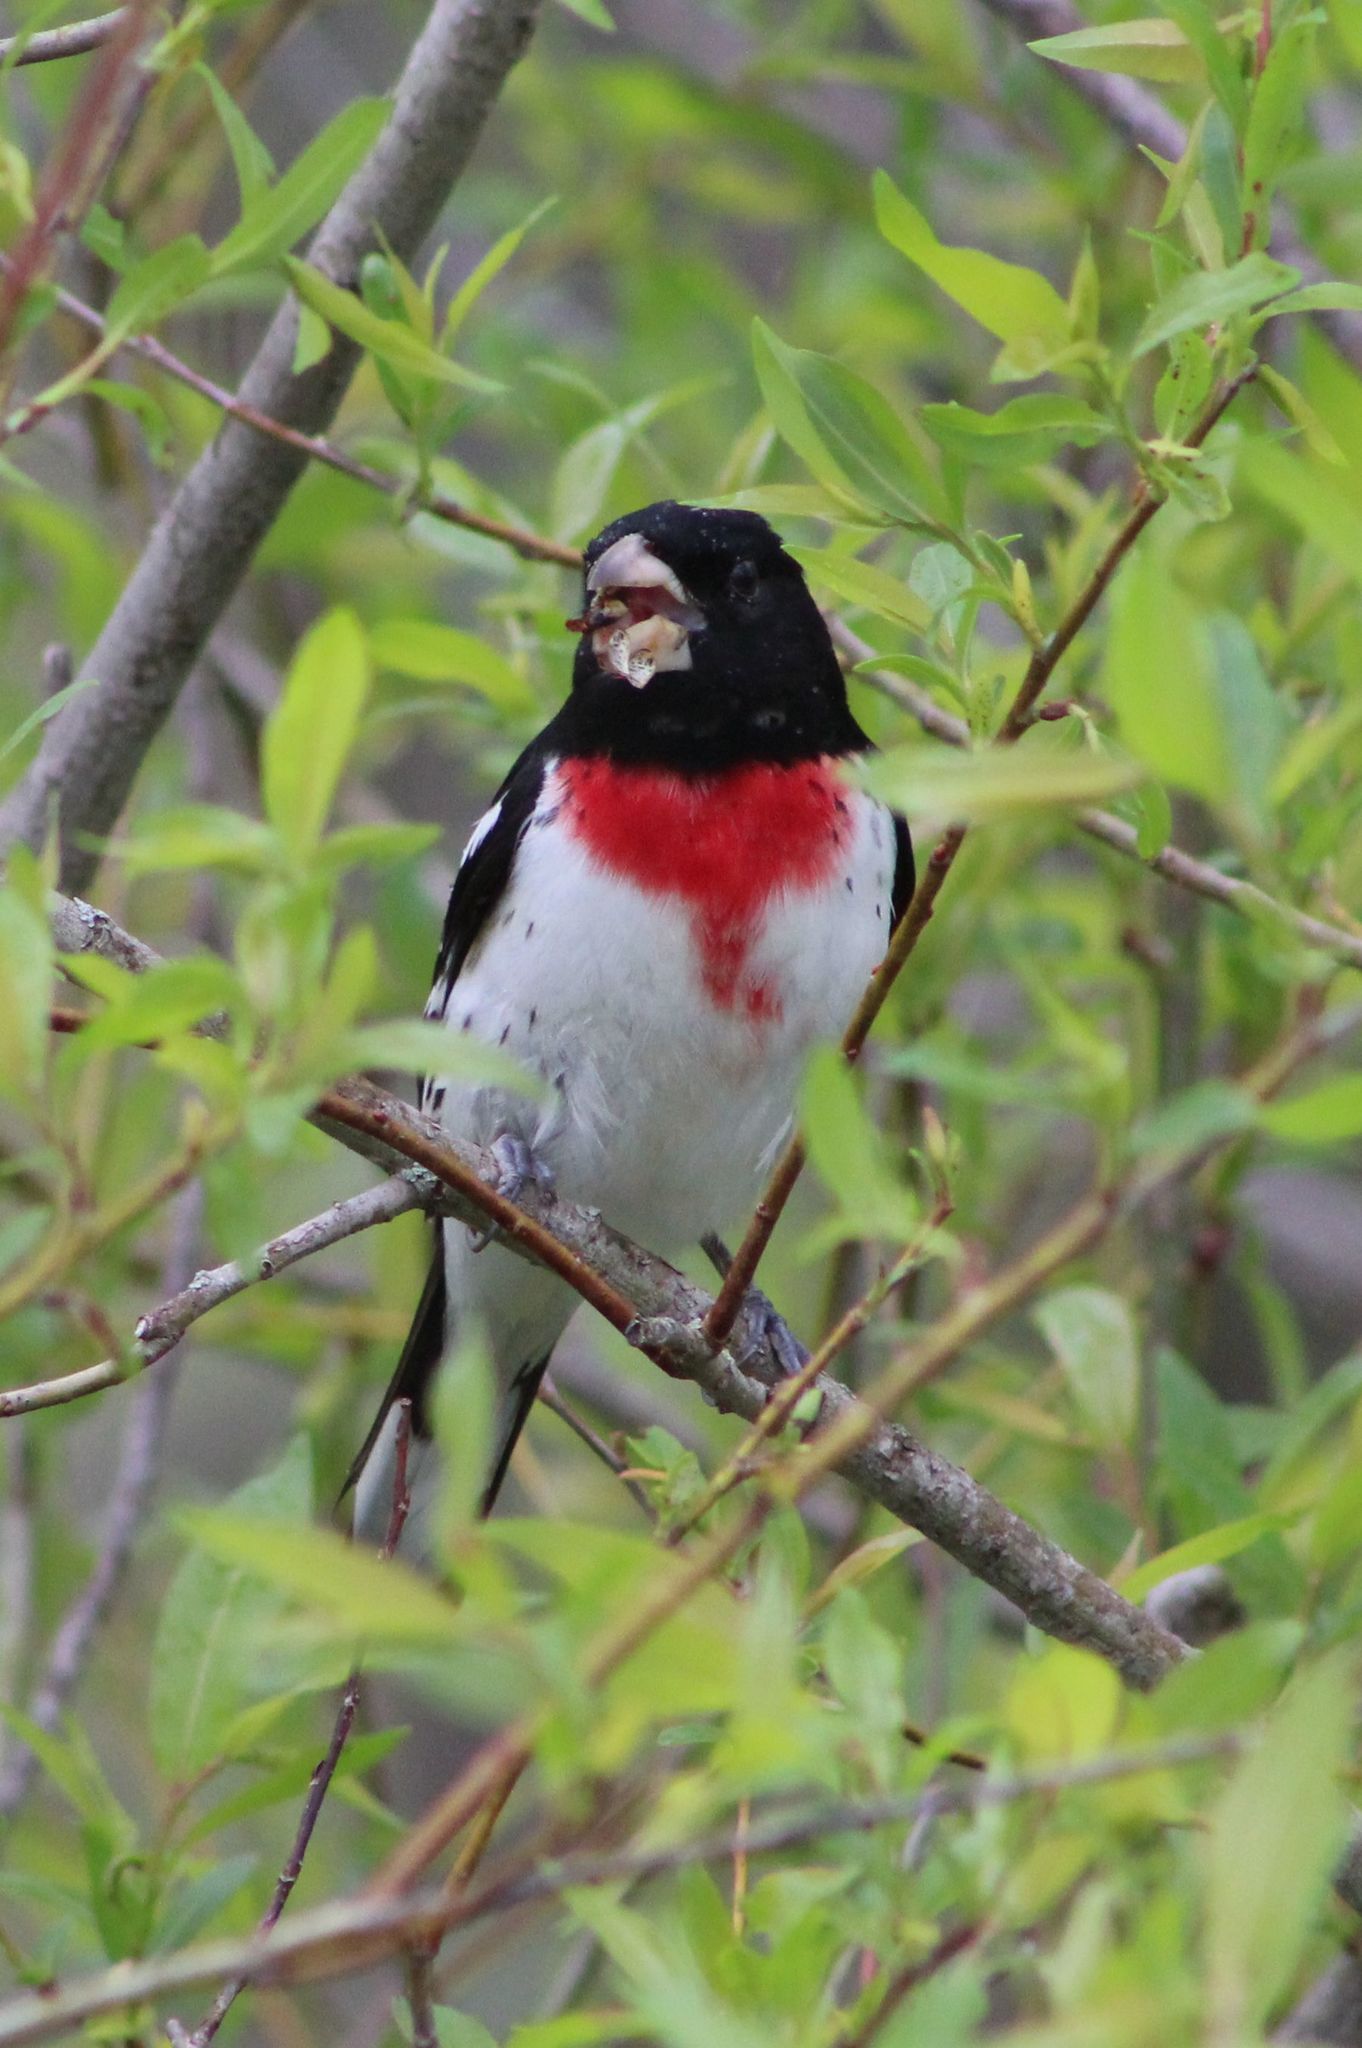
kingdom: Animalia
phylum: Chordata
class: Aves
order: Passeriformes
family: Cardinalidae
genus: Pheucticus
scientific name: Pheucticus ludovicianus
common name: Rose-breasted grosbeak
